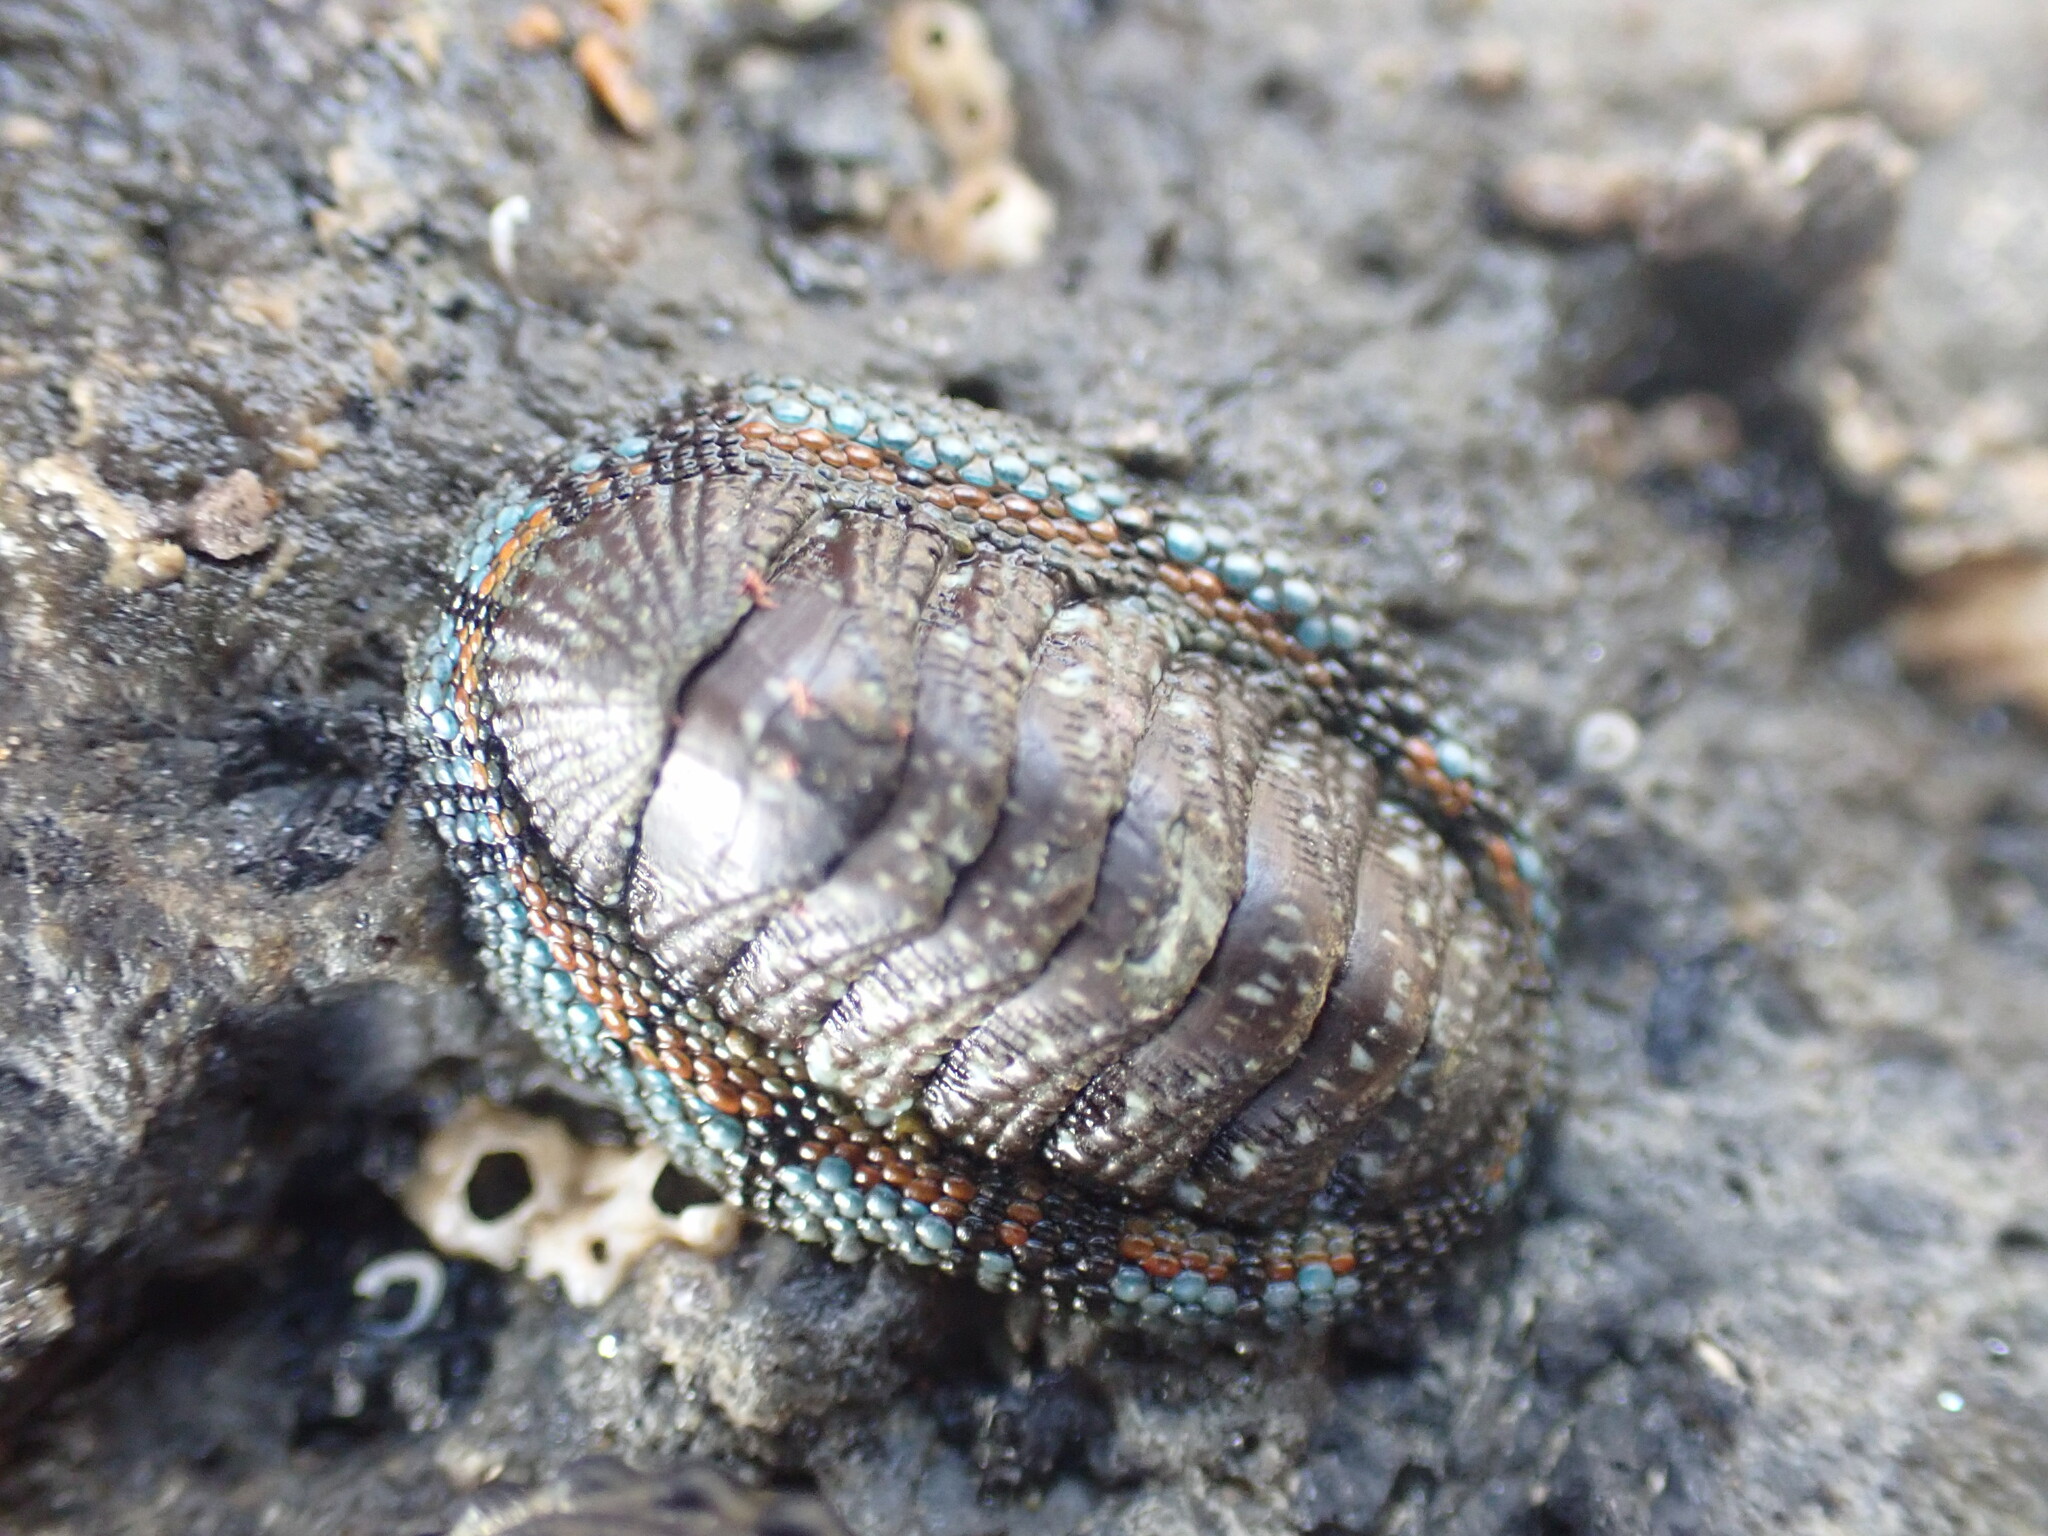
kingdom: Animalia
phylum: Mollusca
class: Polyplacophora
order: Chitonida
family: Chitonidae
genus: Sypharochiton
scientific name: Sypharochiton sinclairi
